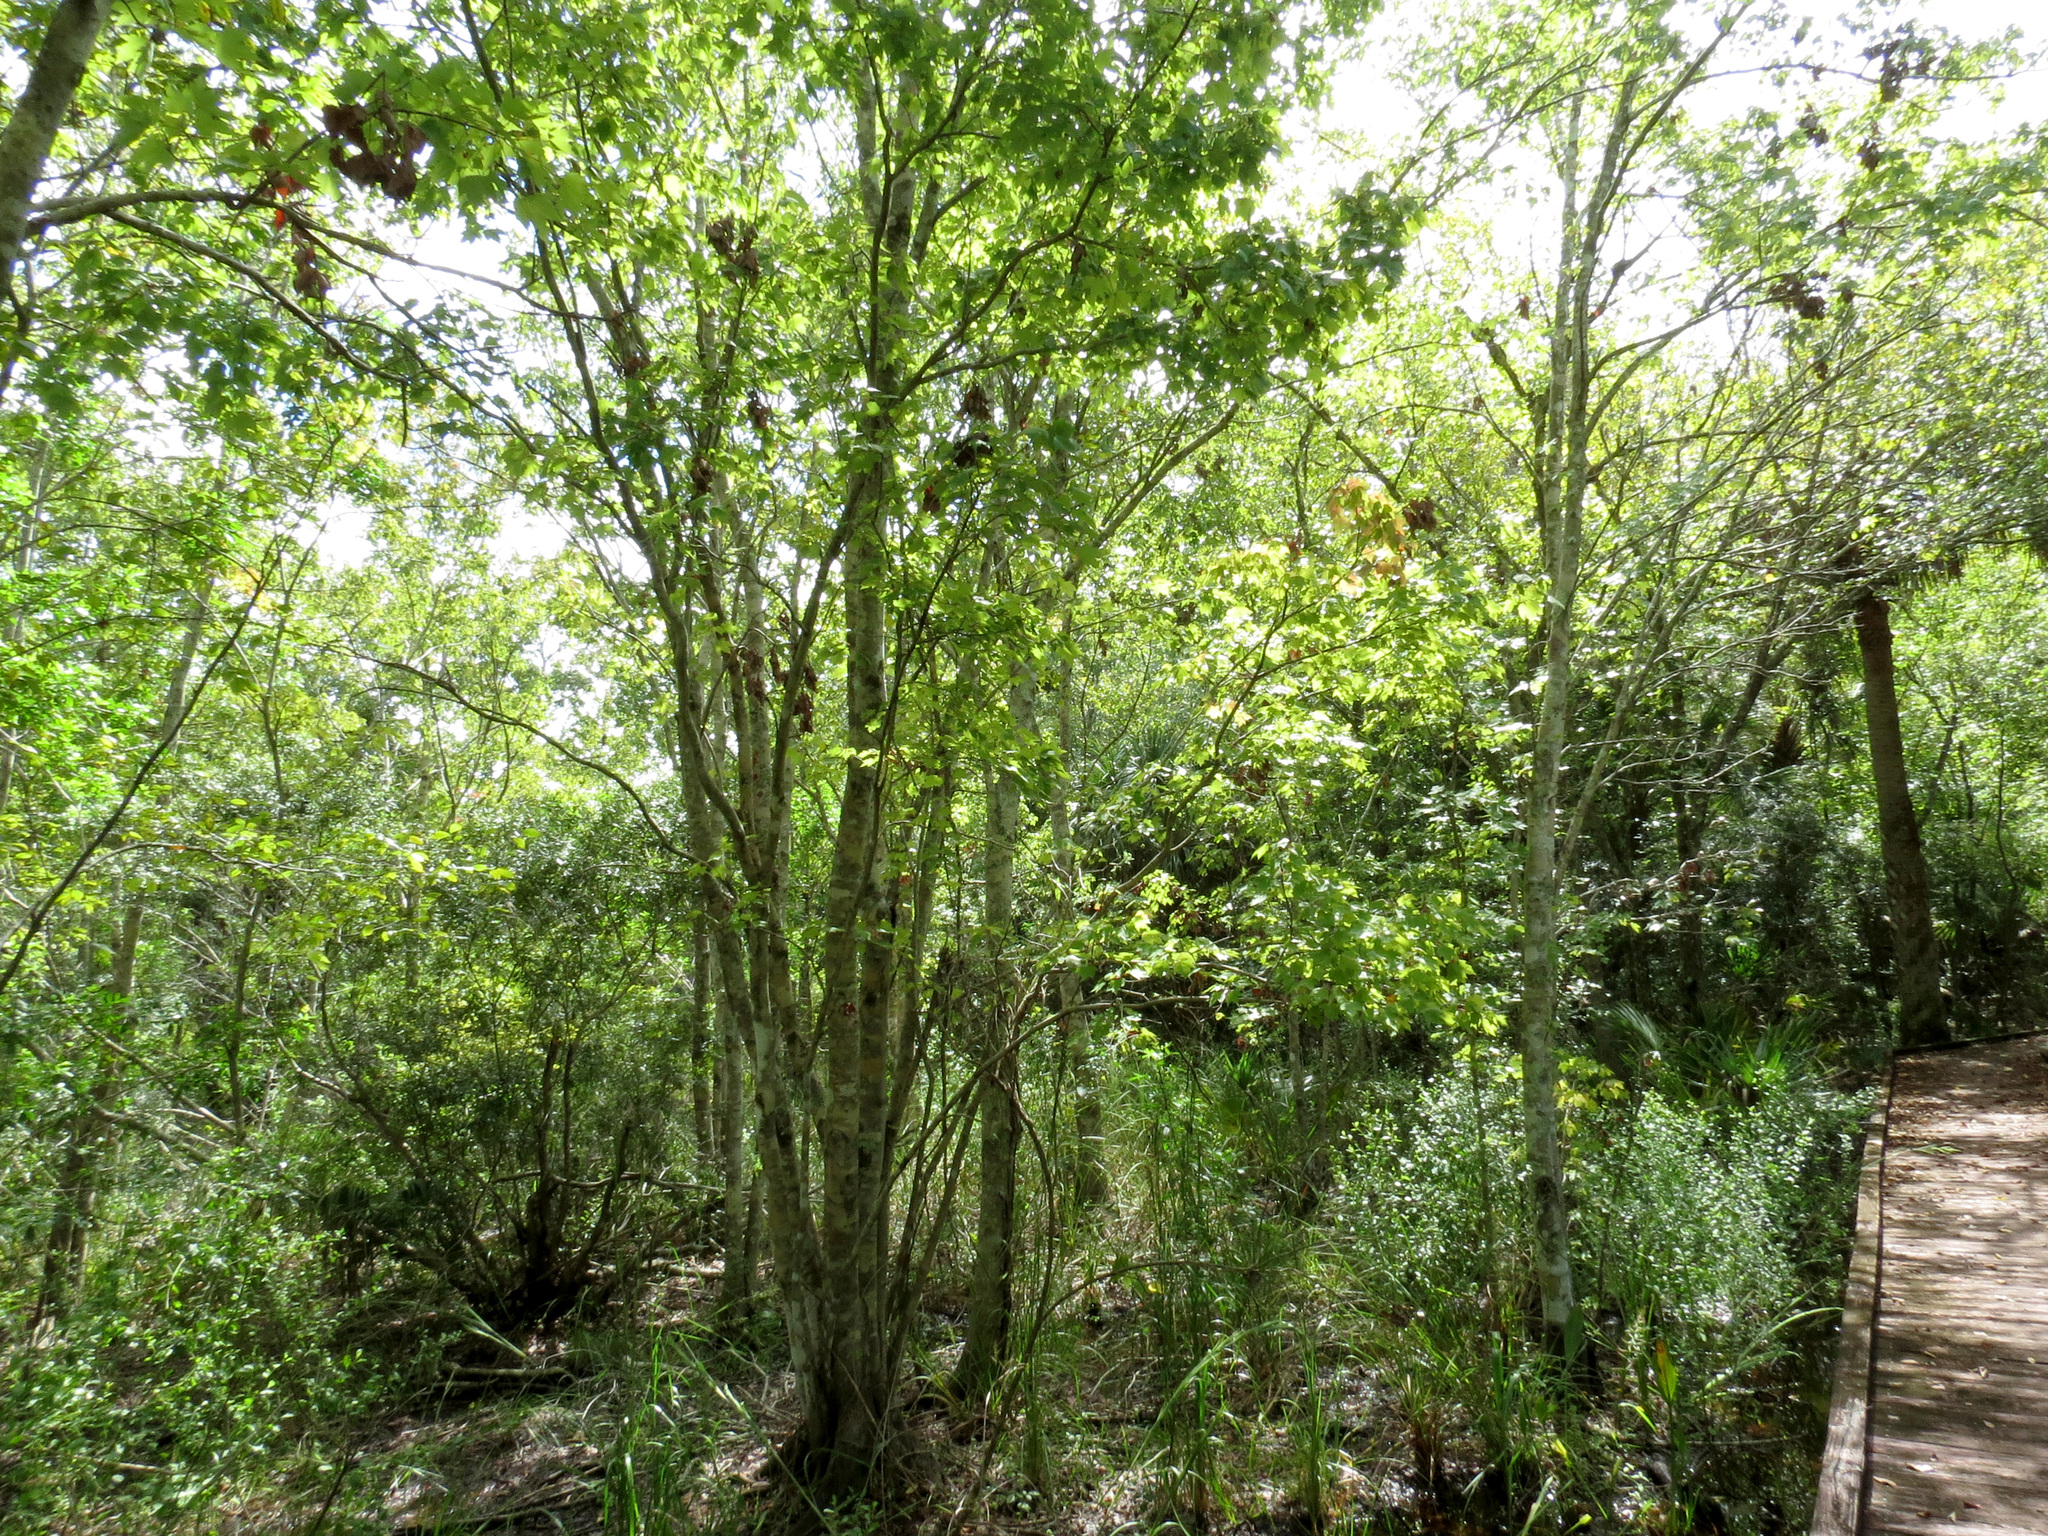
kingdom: Plantae
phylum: Tracheophyta
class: Magnoliopsida
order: Sapindales
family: Sapindaceae
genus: Acer
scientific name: Acer rubrum
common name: Red maple
